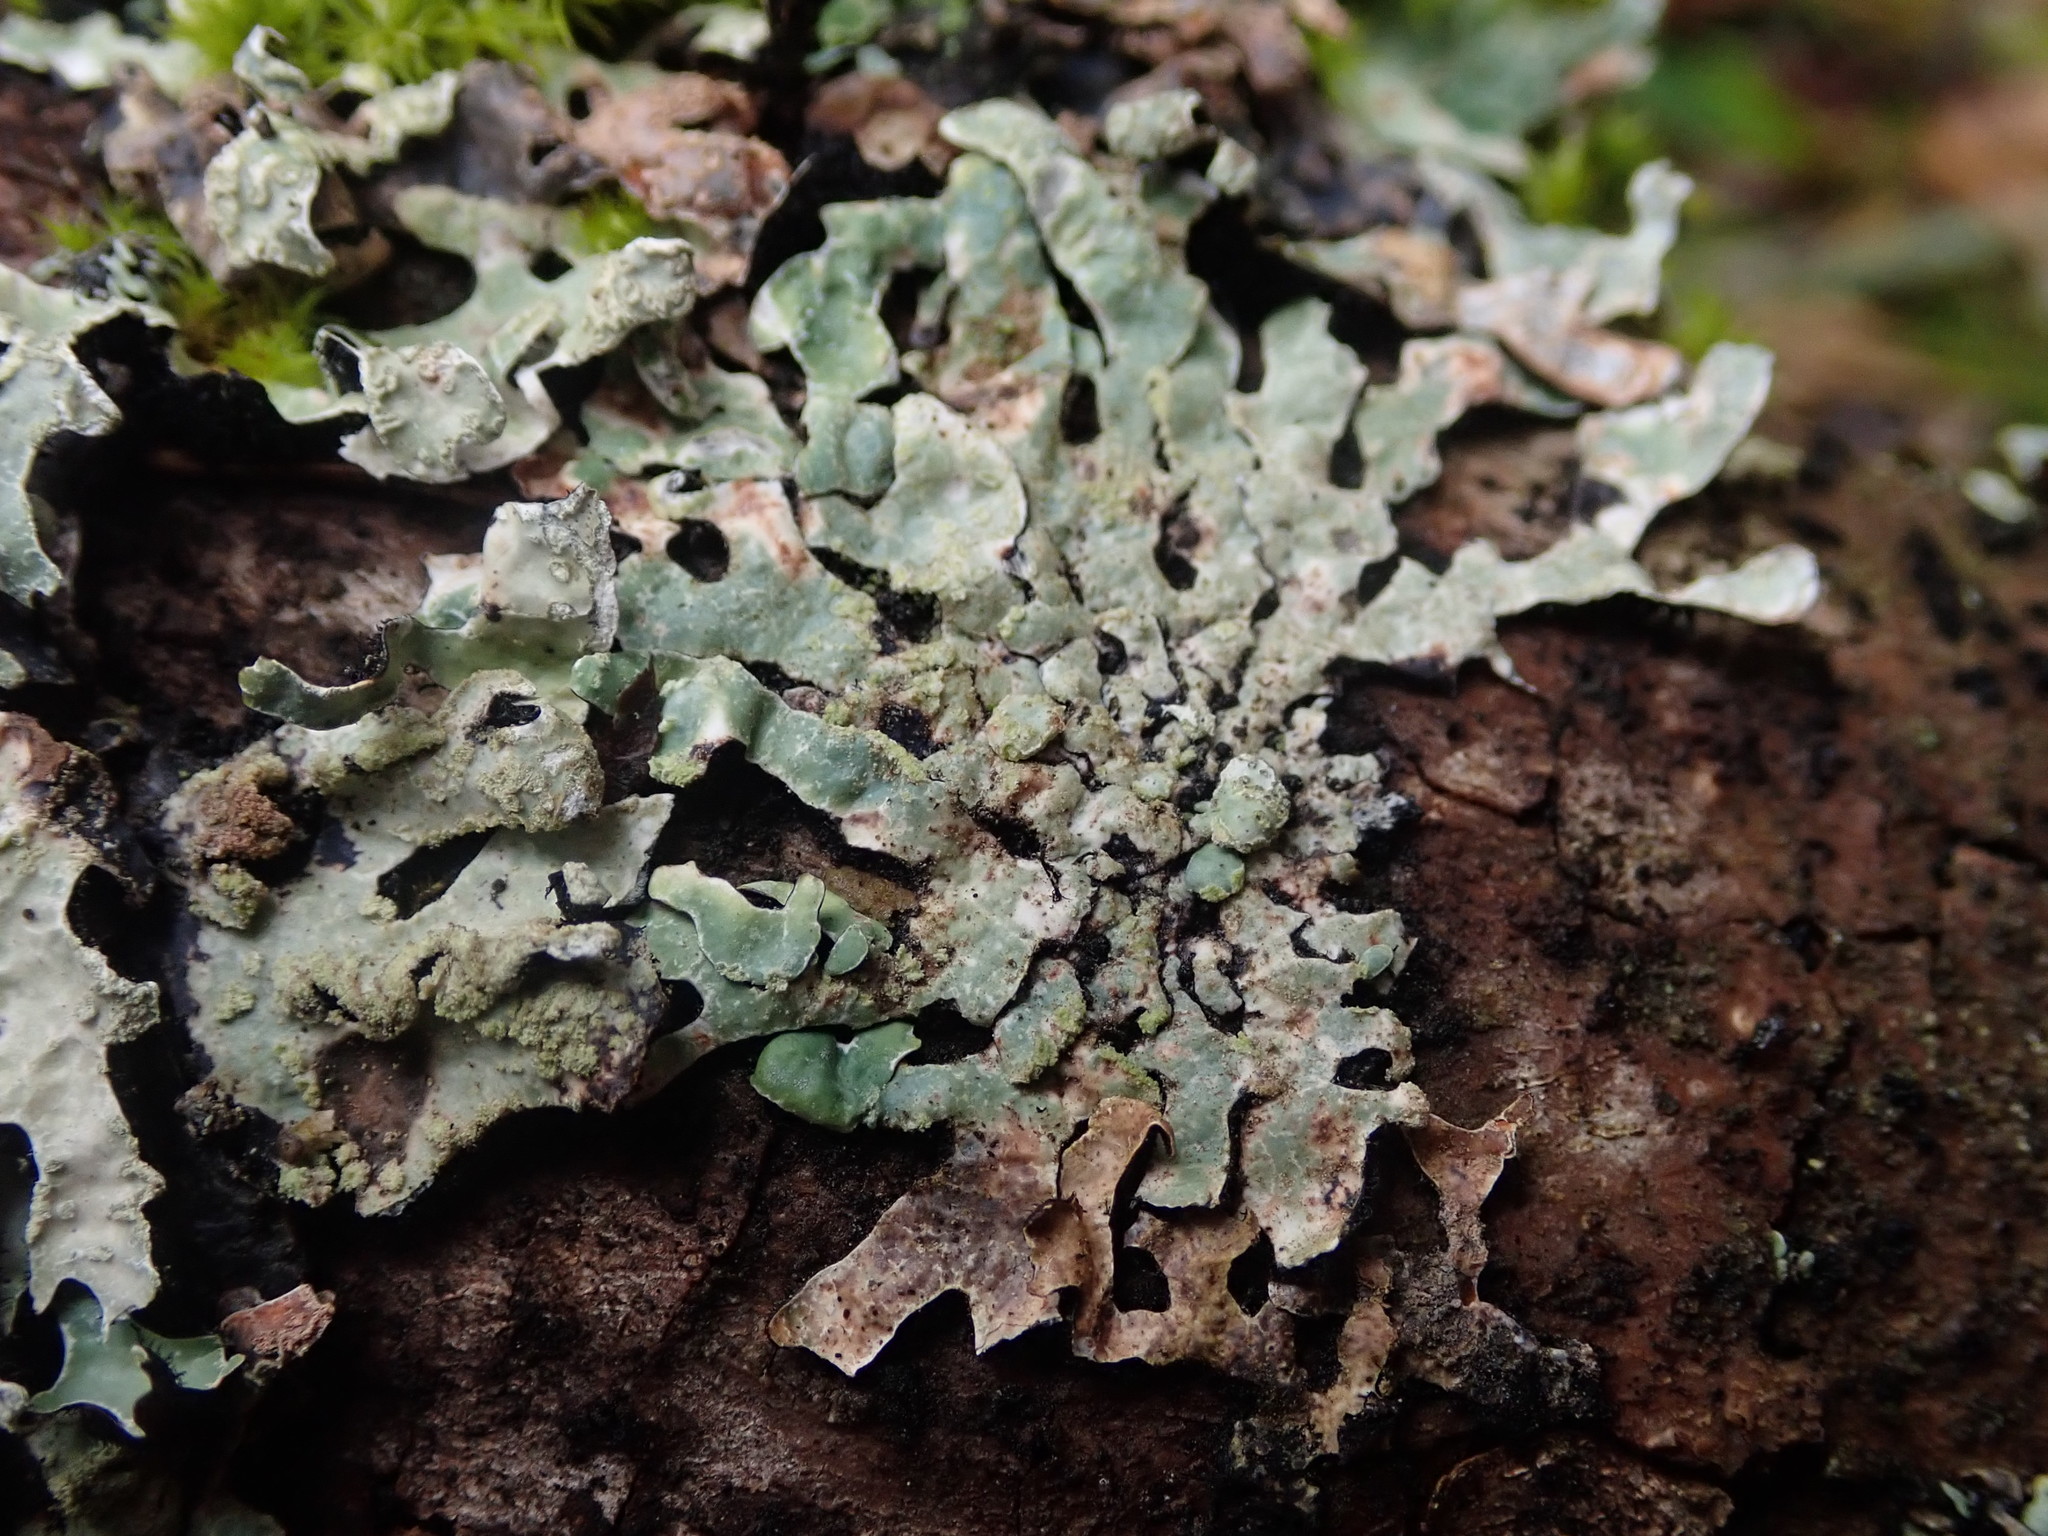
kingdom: Fungi
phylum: Ascomycota
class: Lecanoromycetes
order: Lecanorales
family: Parmeliaceae
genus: Parmelia
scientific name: Parmelia sulcata
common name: Netted shield lichen
